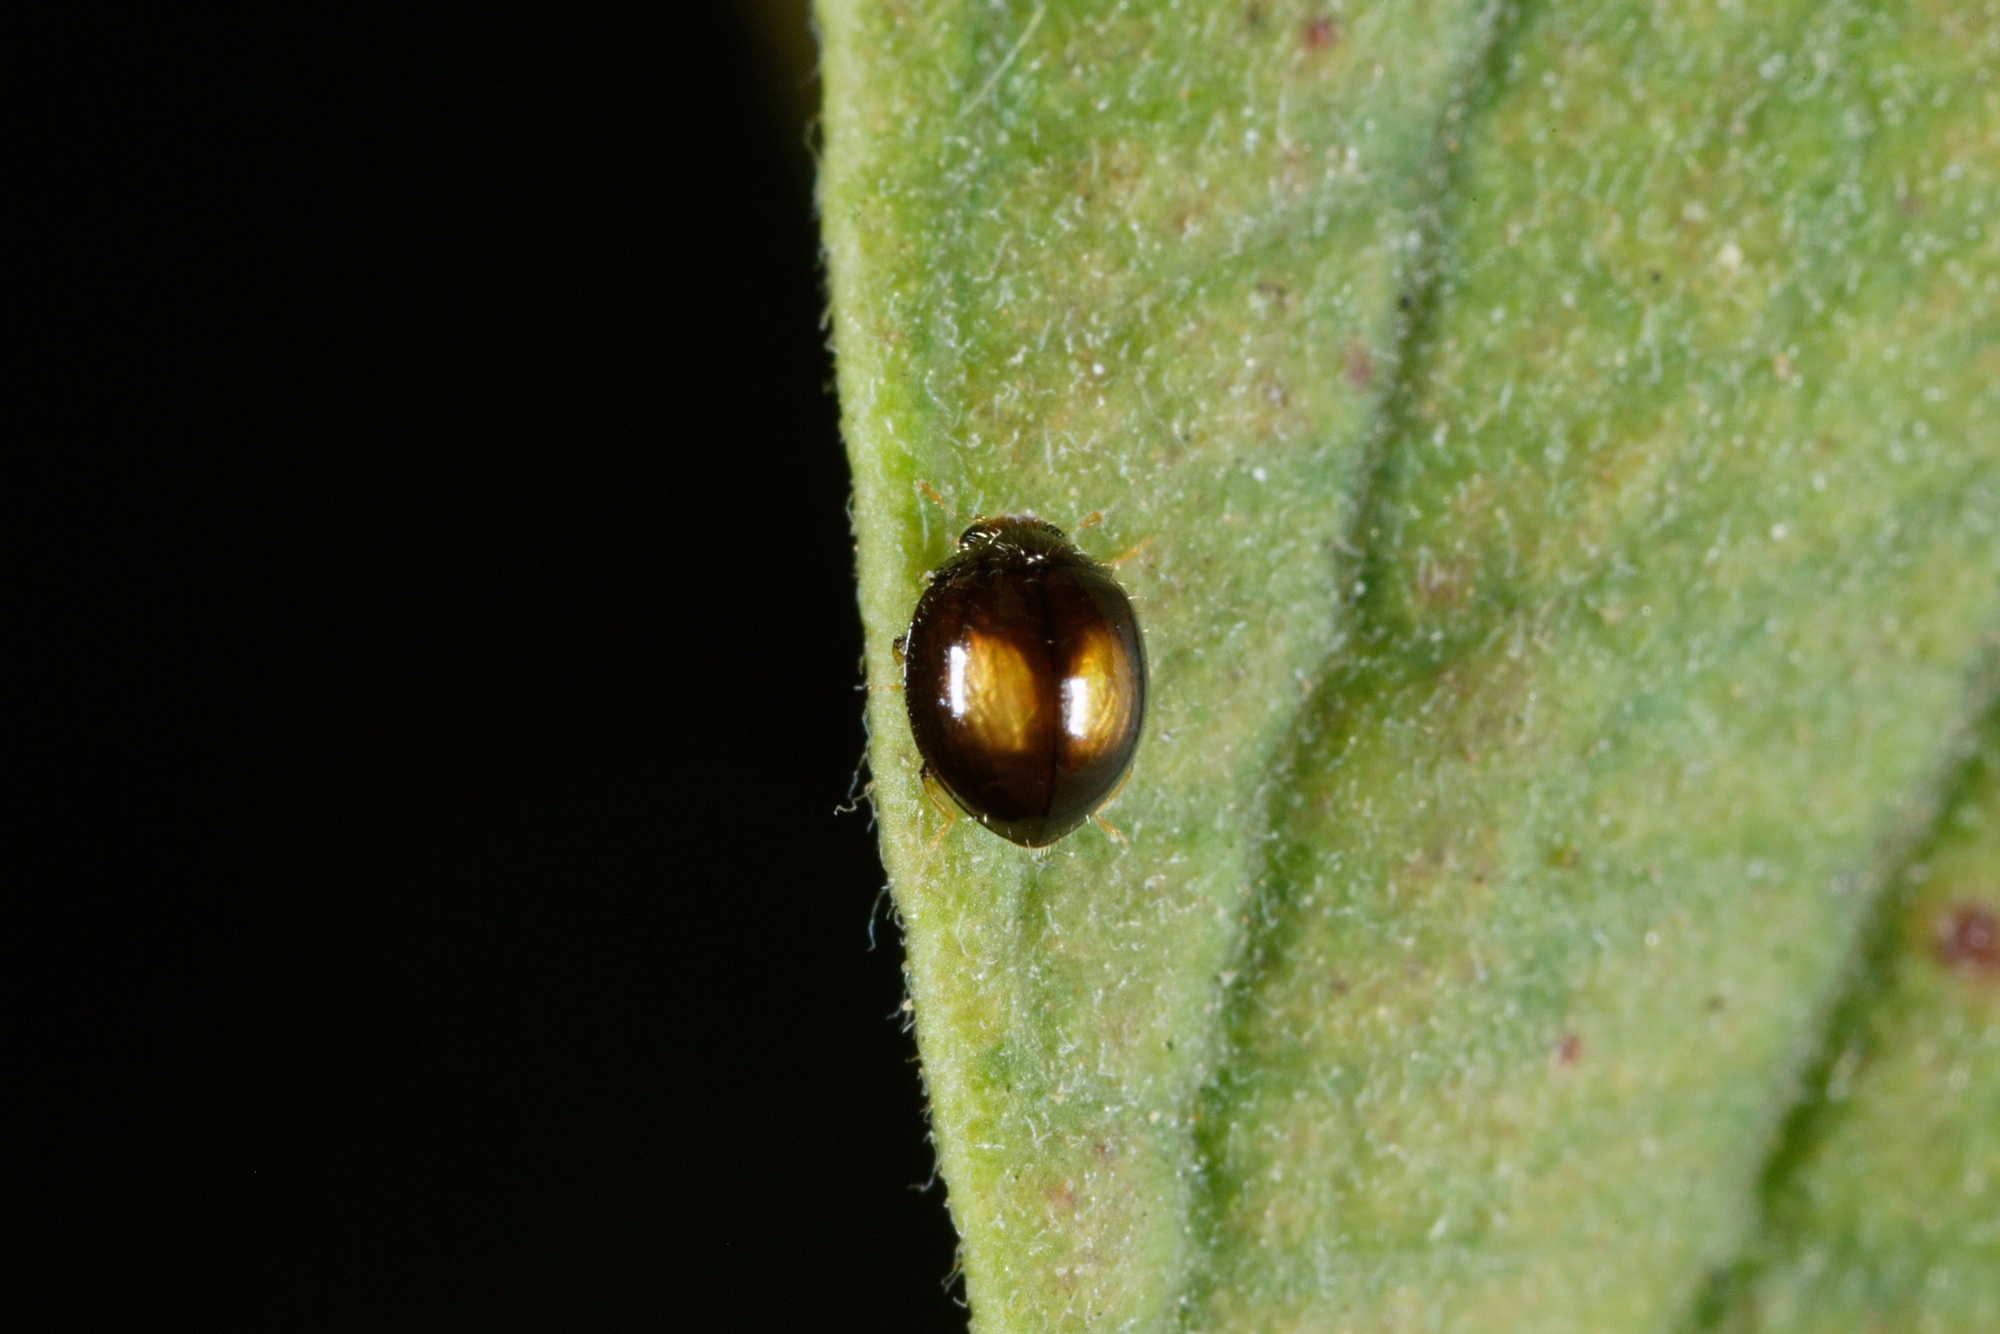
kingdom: Animalia
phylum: Arthropoda
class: Insecta
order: Coleoptera
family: Coccinellidae
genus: Serangium
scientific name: Serangium maculigerum
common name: Lady beetle
